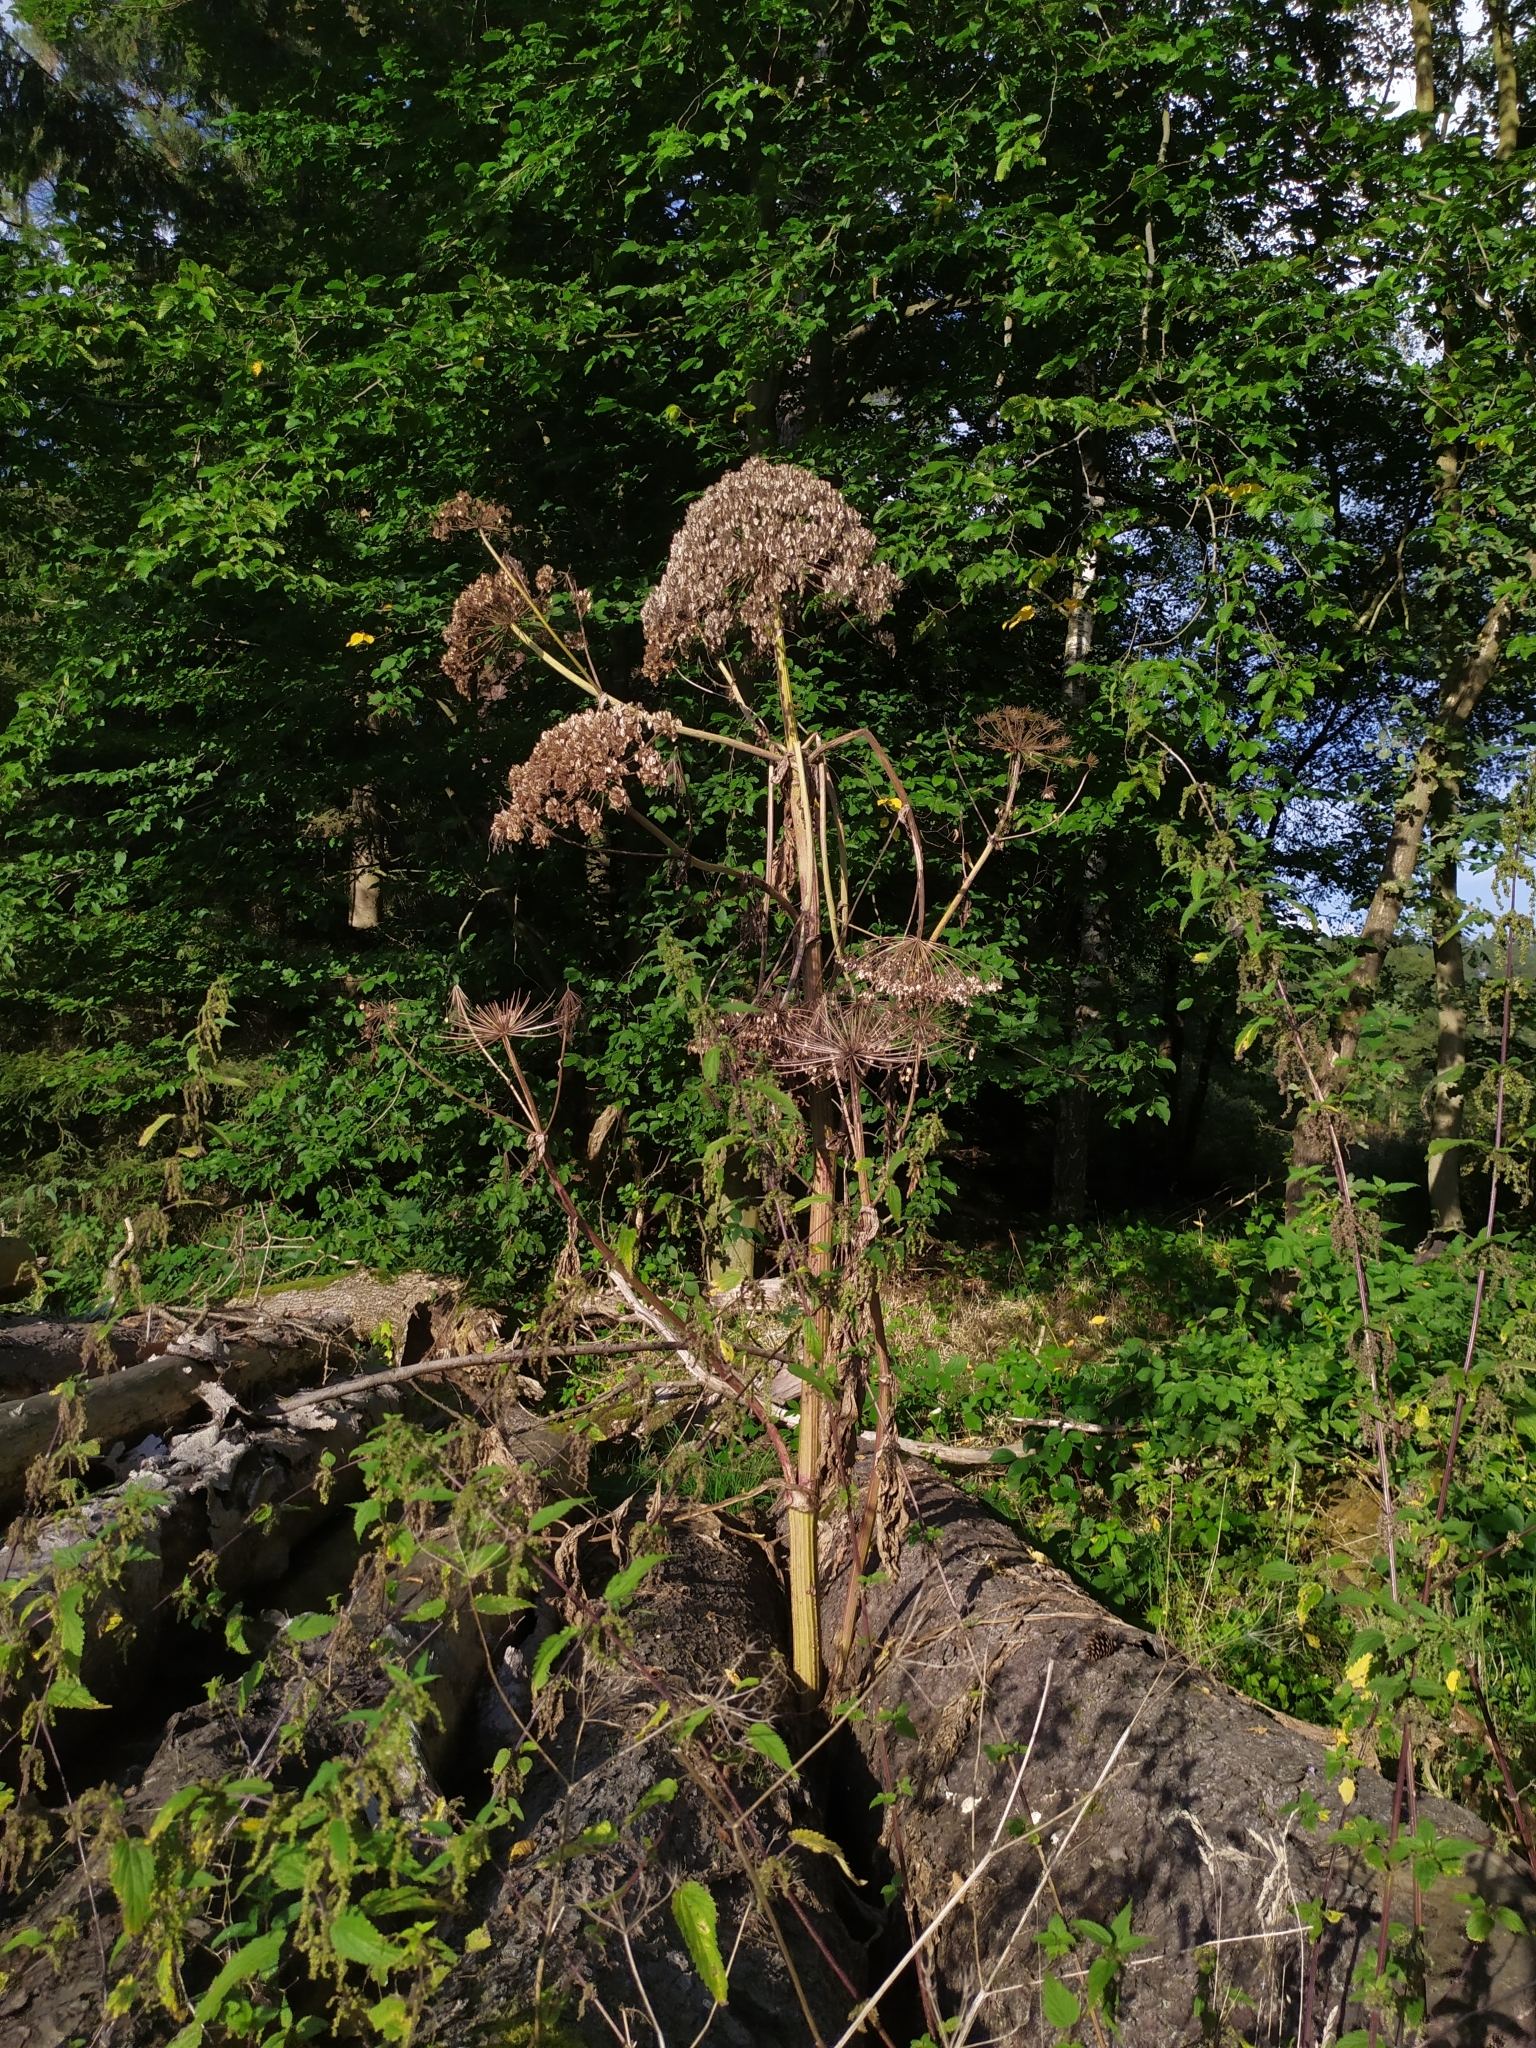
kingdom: Plantae
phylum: Tracheophyta
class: Magnoliopsida
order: Apiales
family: Apiaceae
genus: Heracleum
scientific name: Heracleum mantegazzianum
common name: Giant hogweed
